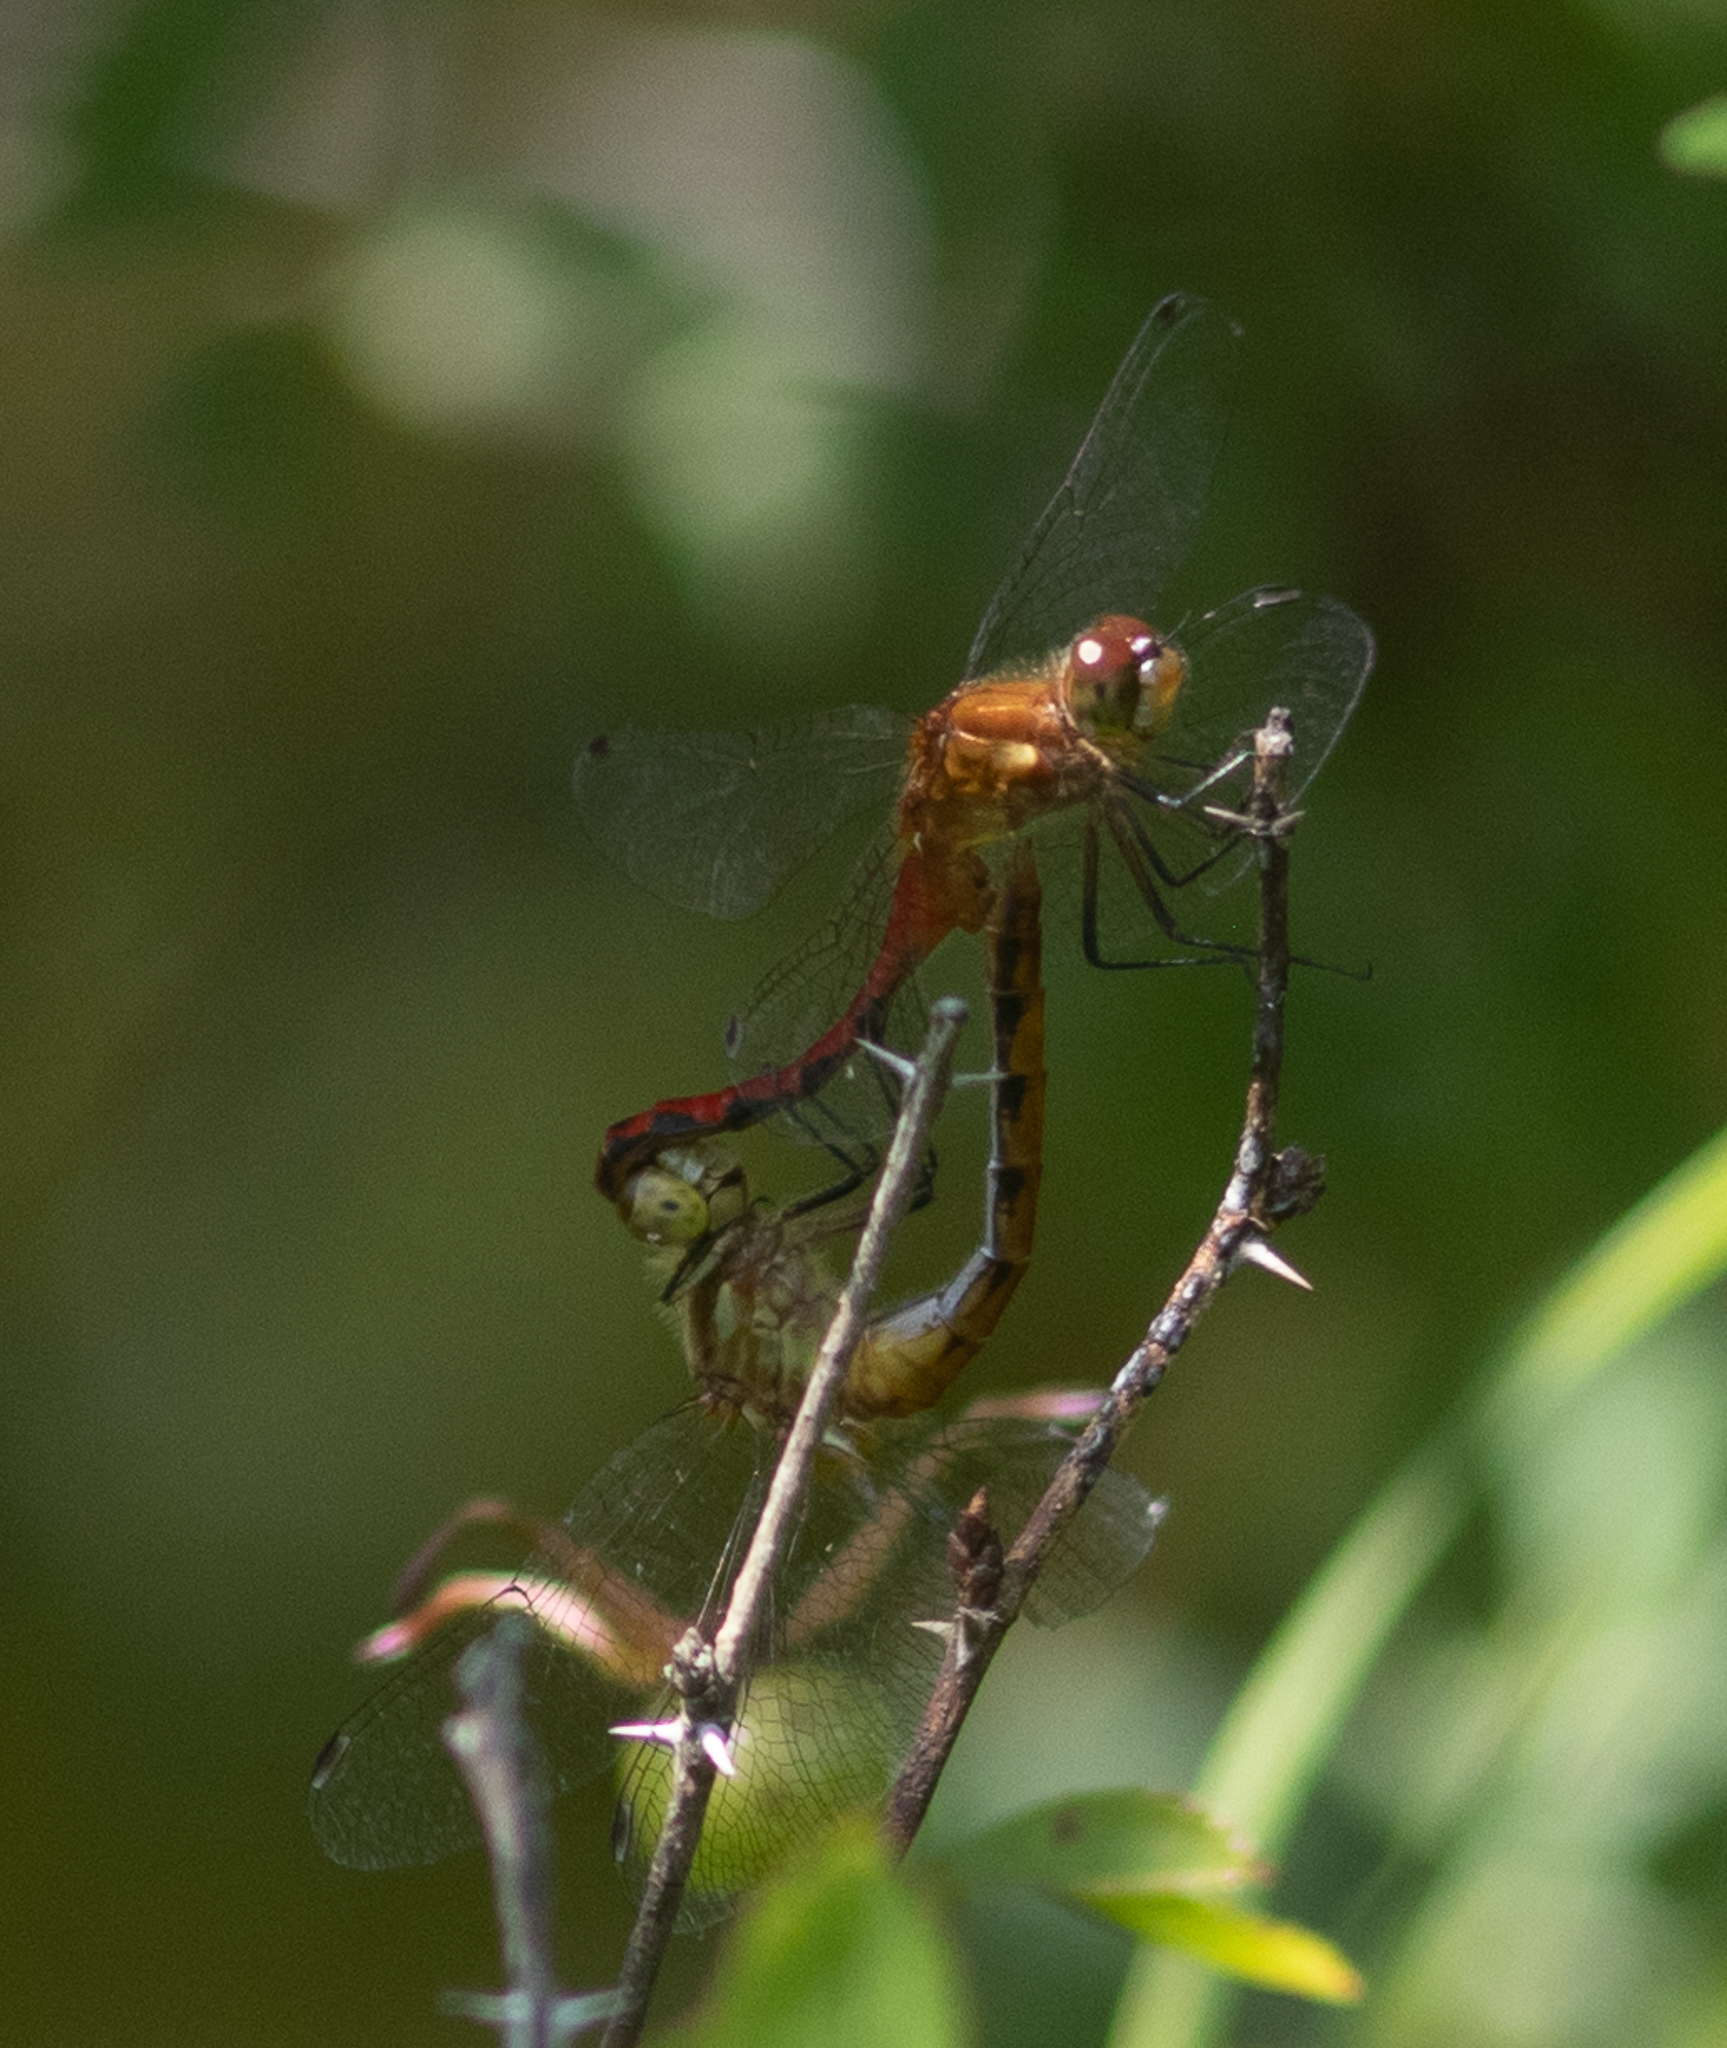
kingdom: Animalia
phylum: Arthropoda
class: Insecta
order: Odonata
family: Libellulidae
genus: Sympetrum
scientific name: Sympetrum
